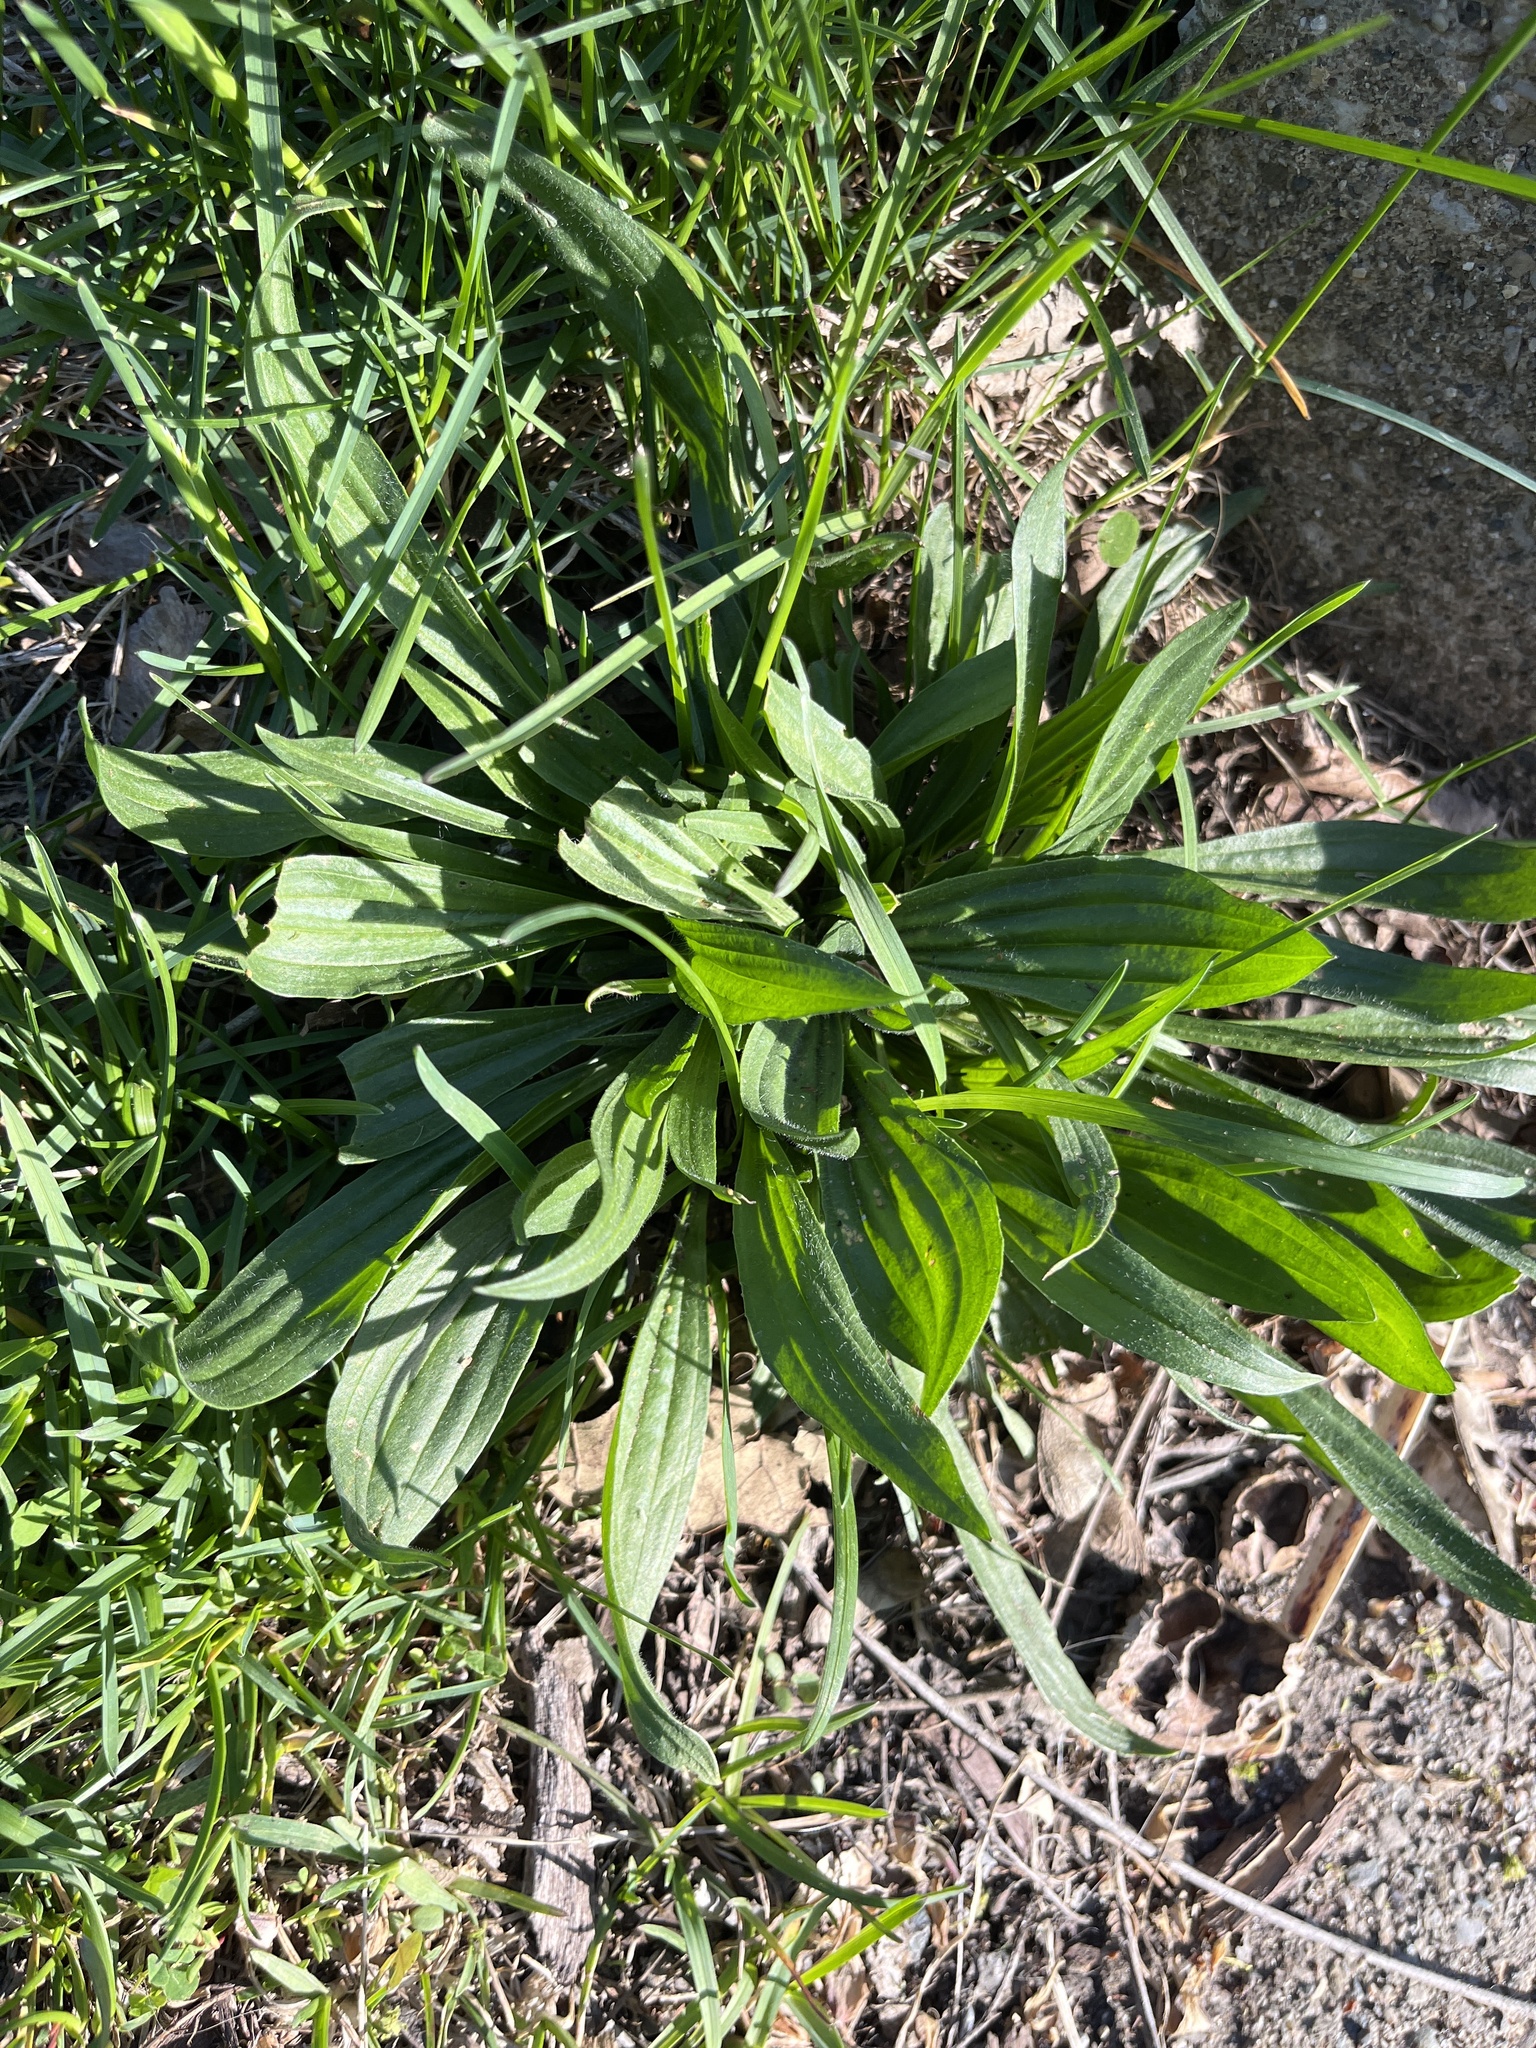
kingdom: Plantae
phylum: Tracheophyta
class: Magnoliopsida
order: Lamiales
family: Plantaginaceae
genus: Plantago
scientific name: Plantago lanceolata
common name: Ribwort plantain
